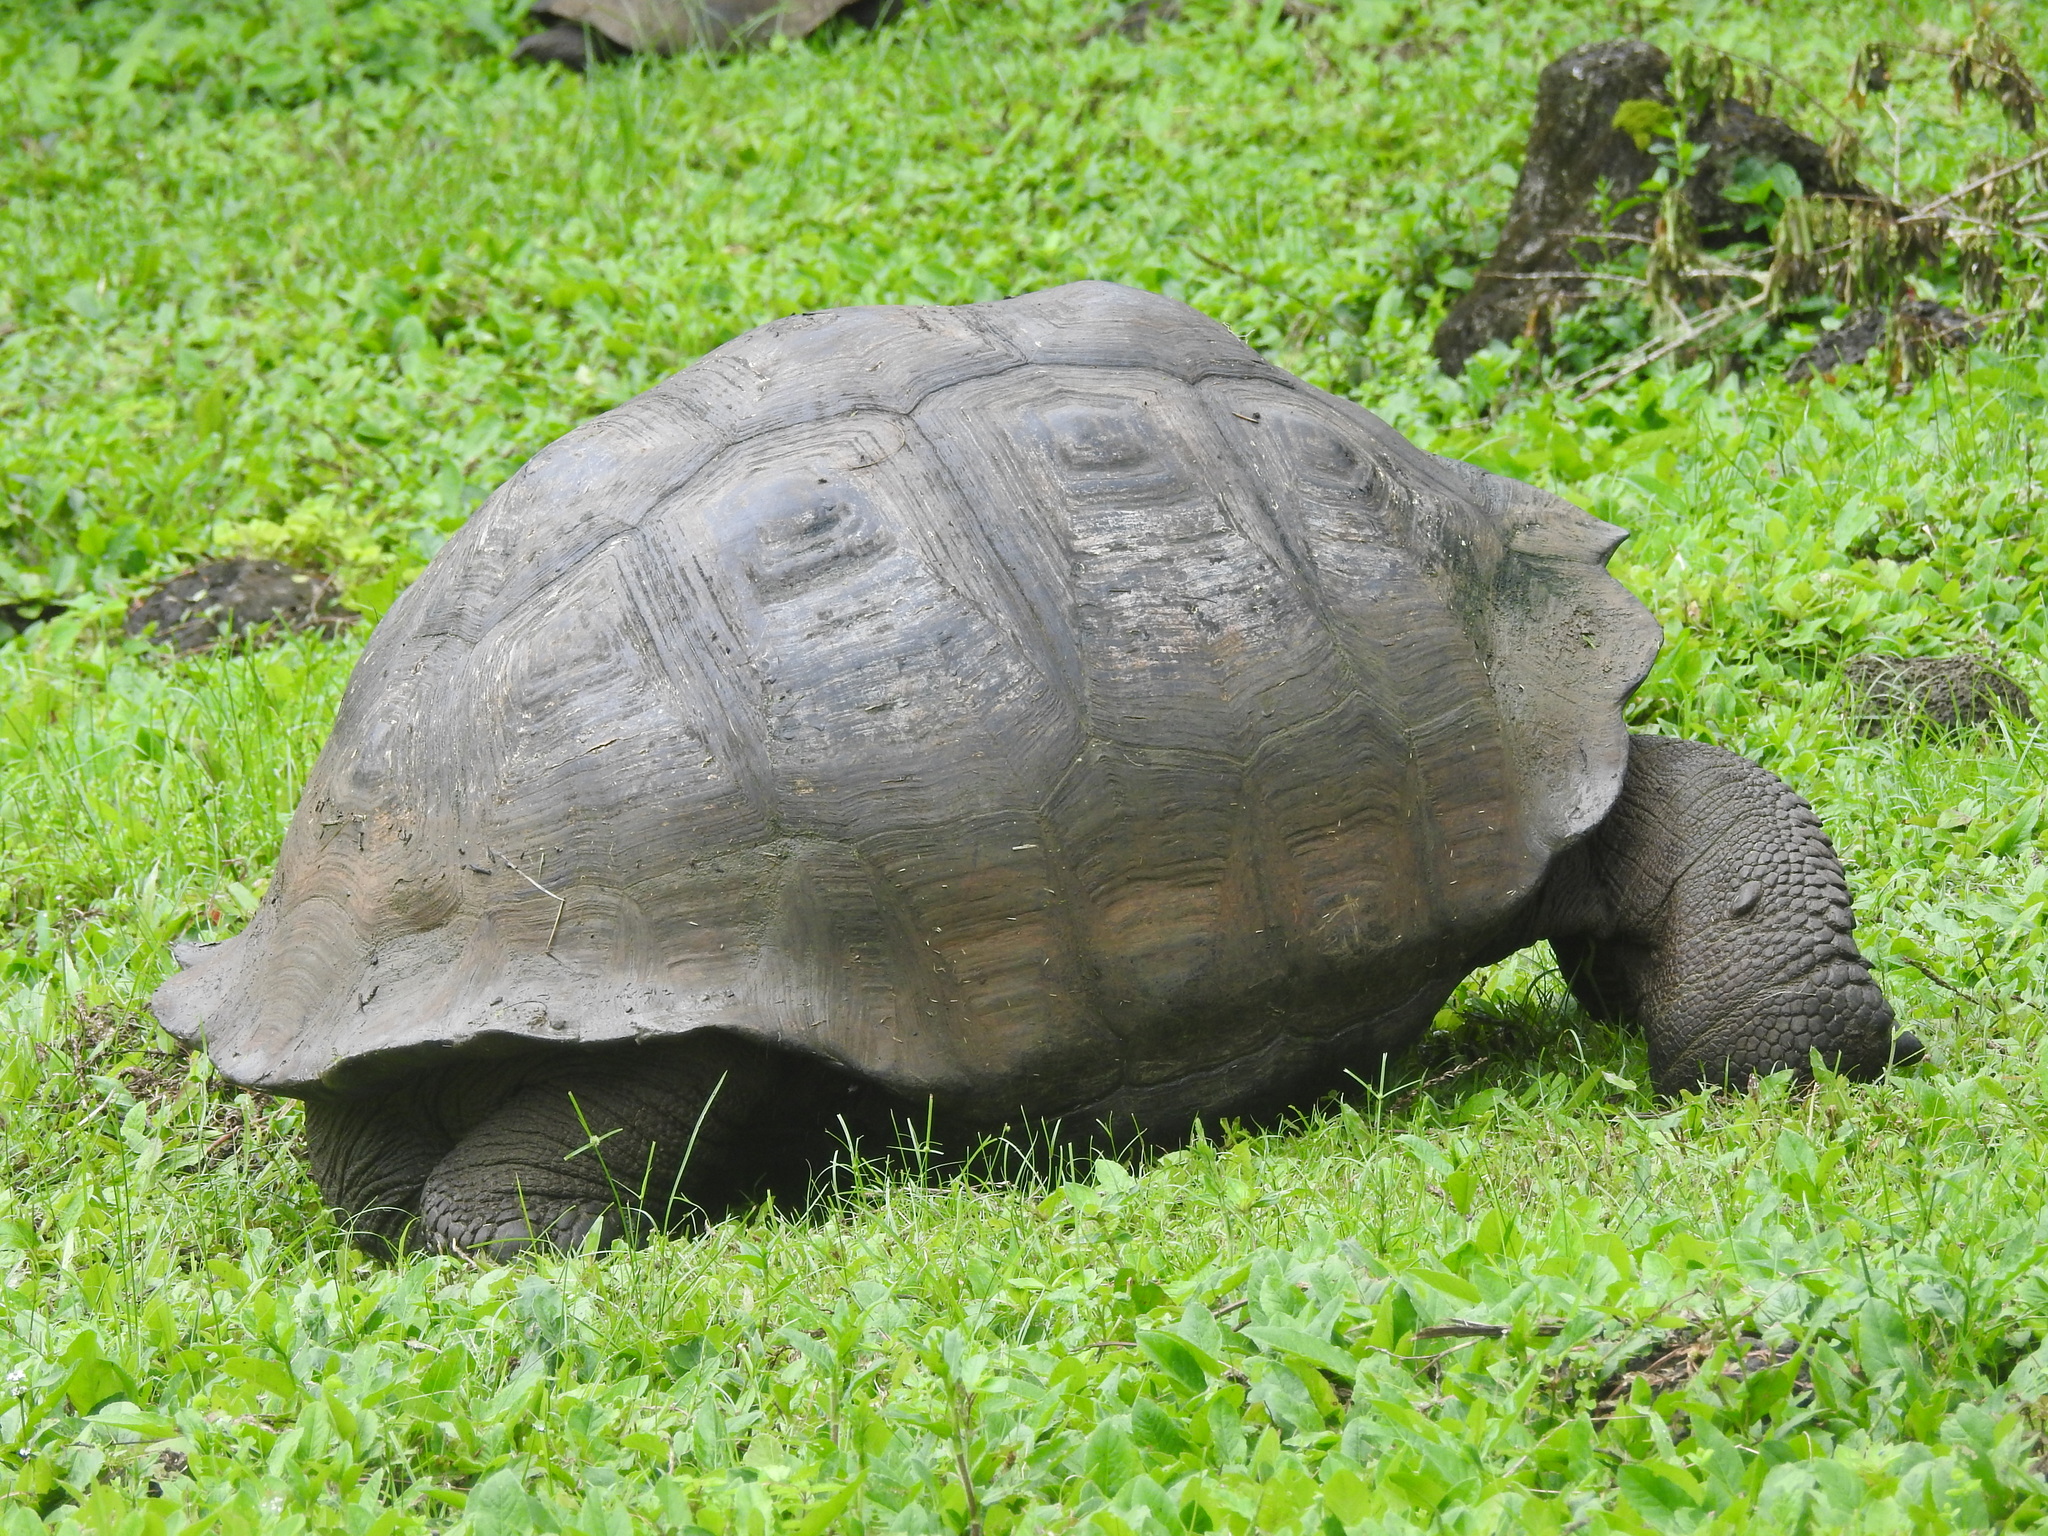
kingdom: Animalia
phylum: Chordata
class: Testudines
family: Testudinidae
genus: Chelonoidis
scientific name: Chelonoidis porteri
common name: Indefatigable island giant tortoise
